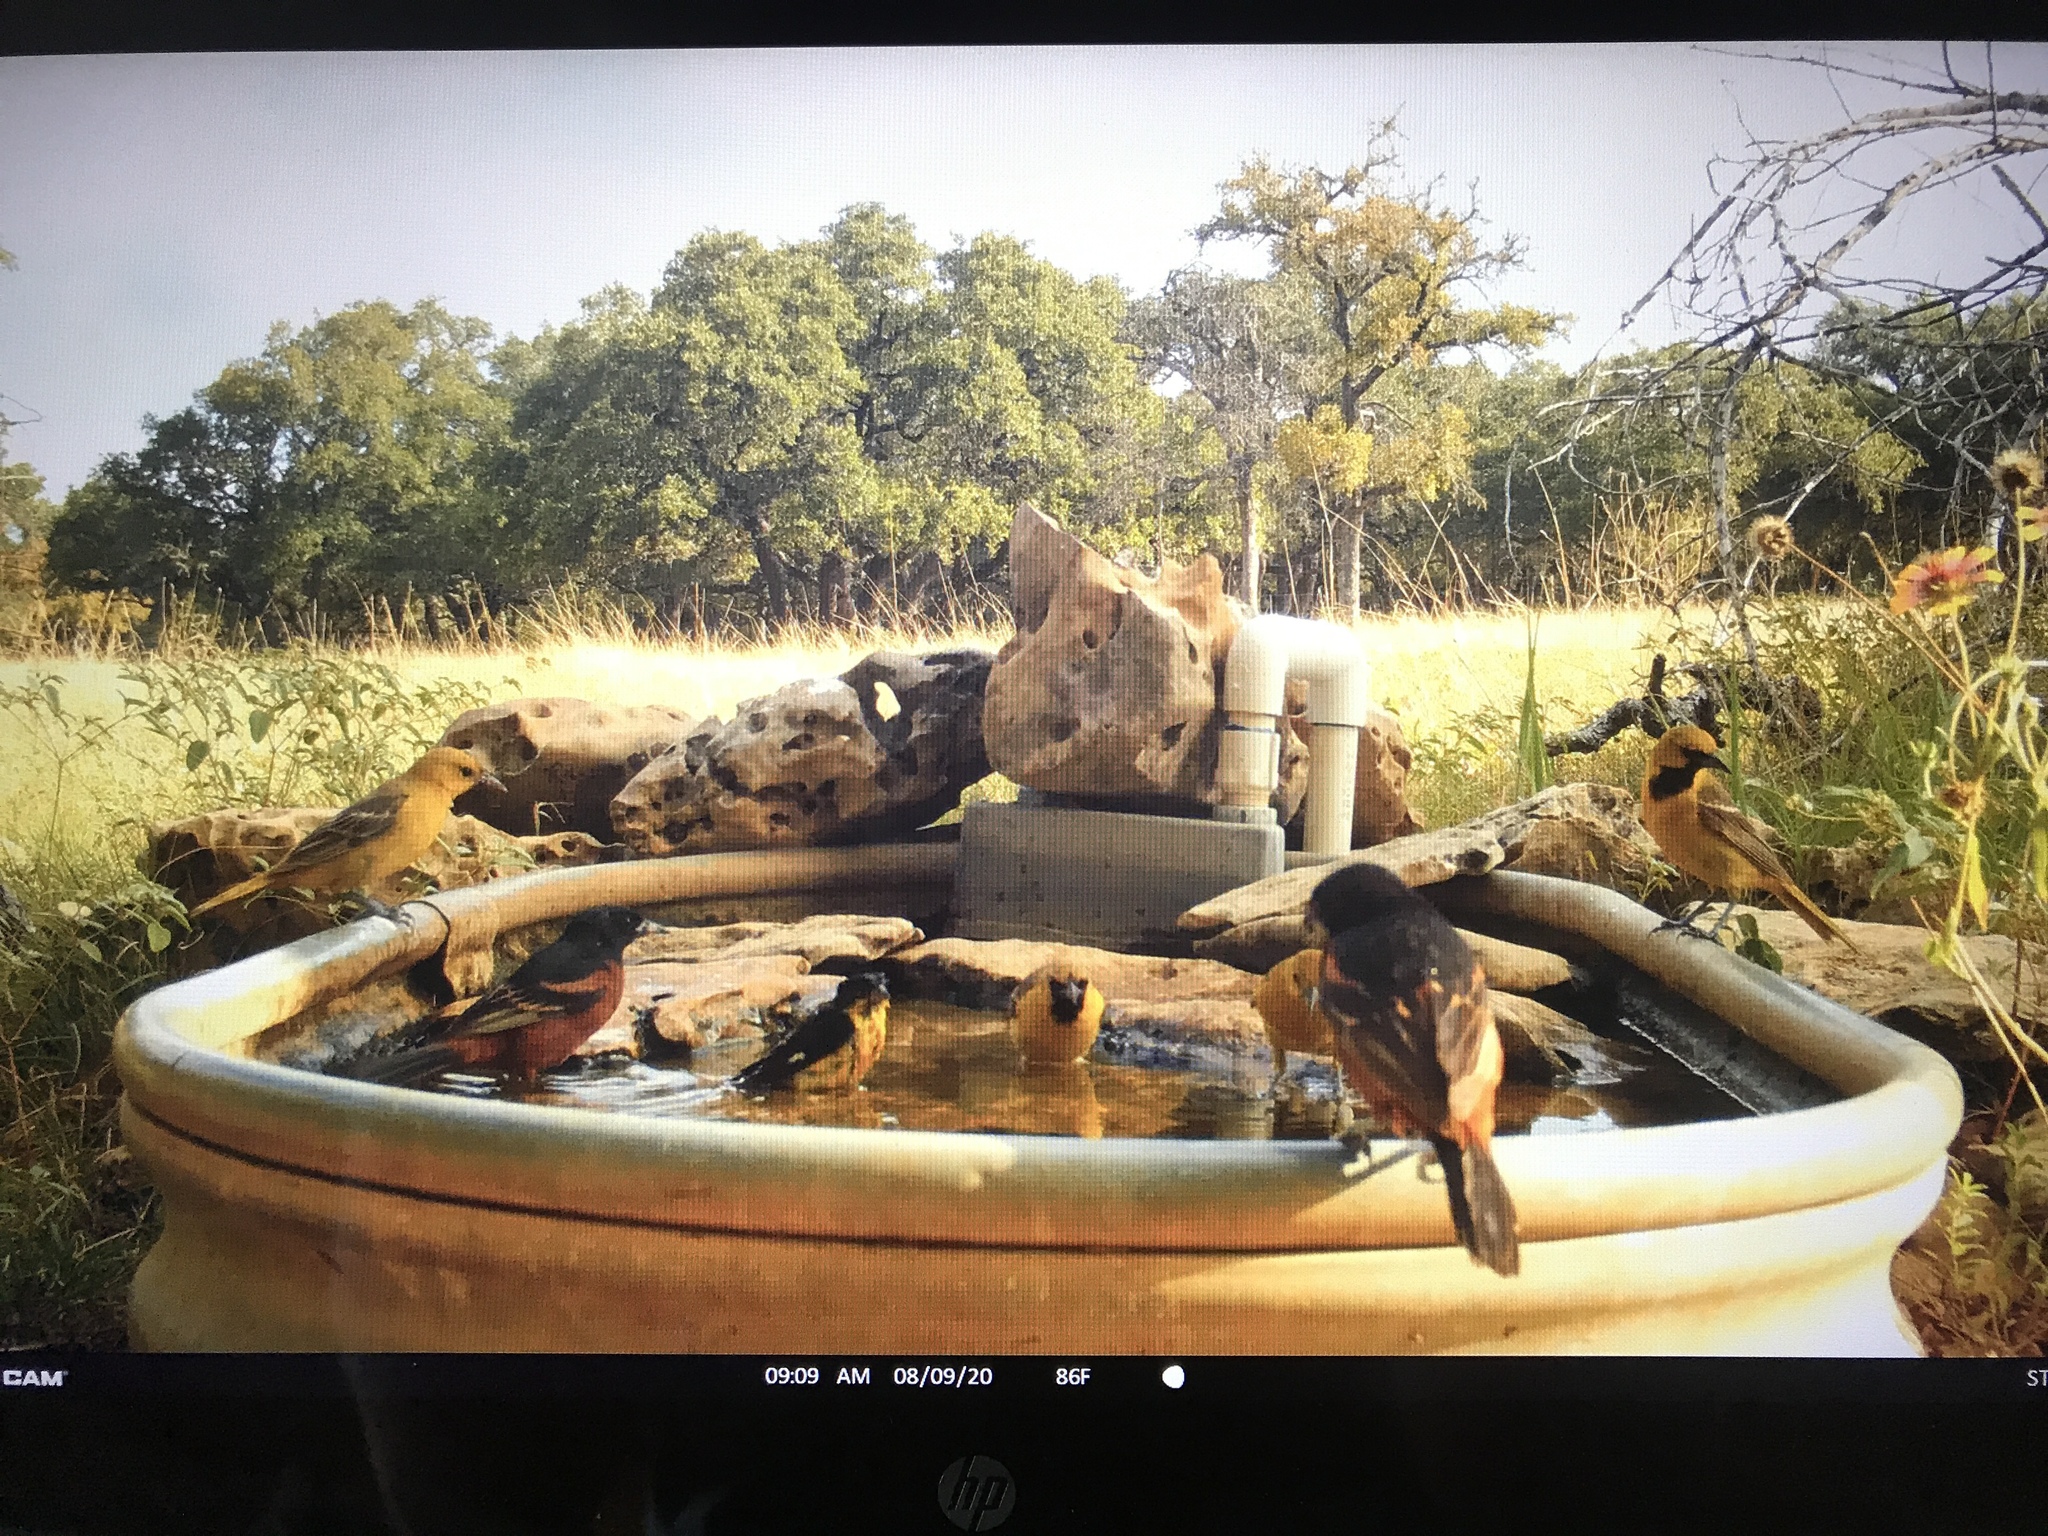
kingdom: Animalia
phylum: Chordata
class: Aves
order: Passeriformes
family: Icteridae
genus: Icterus
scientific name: Icterus spurius
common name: Orchard oriole
